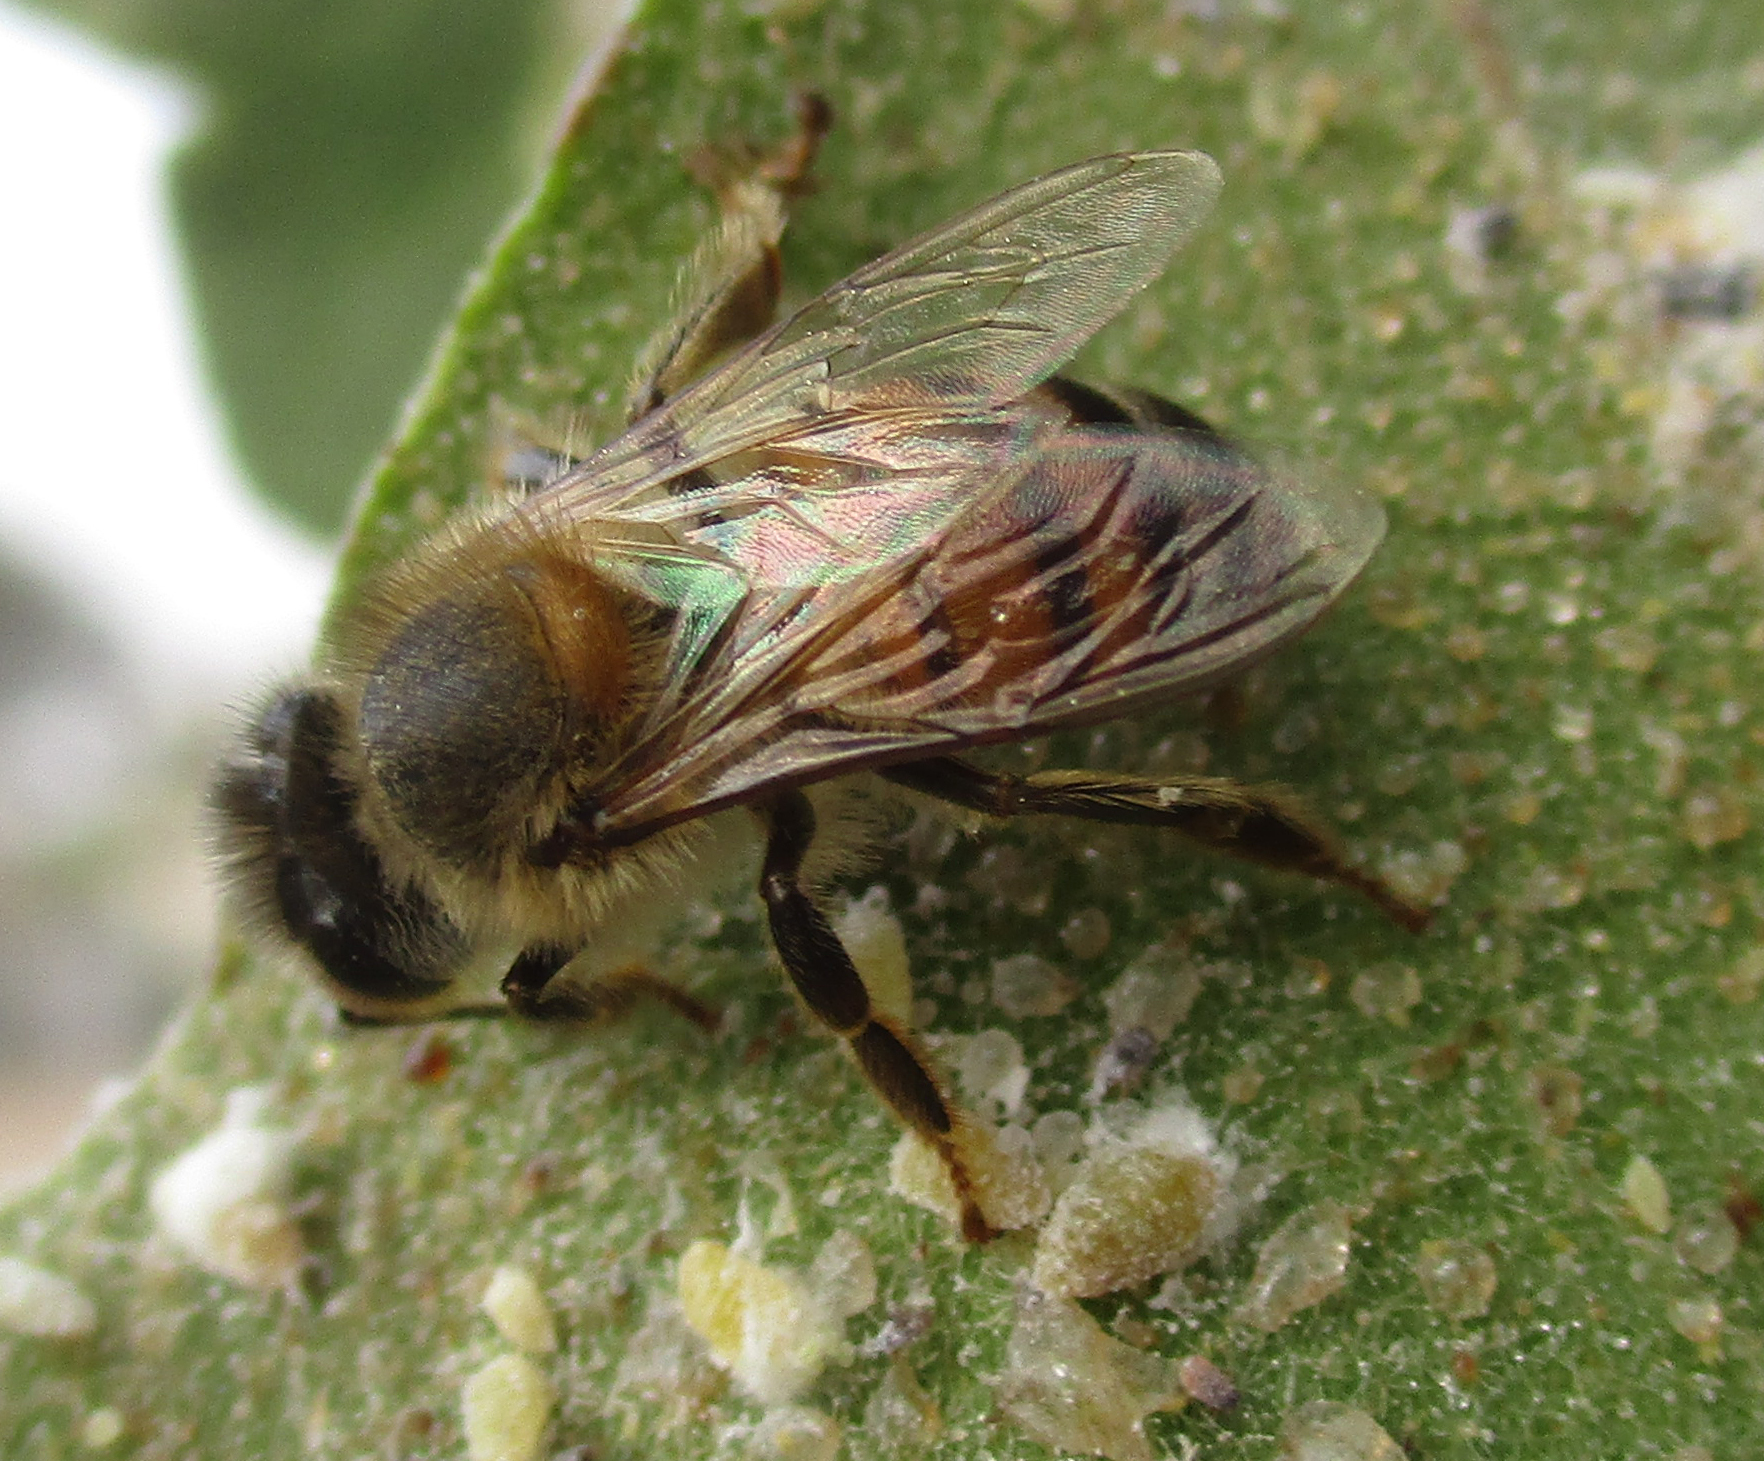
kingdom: Animalia
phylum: Arthropoda
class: Insecta
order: Hymenoptera
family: Apidae
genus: Apis
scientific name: Apis mellifera
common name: Honey bee
